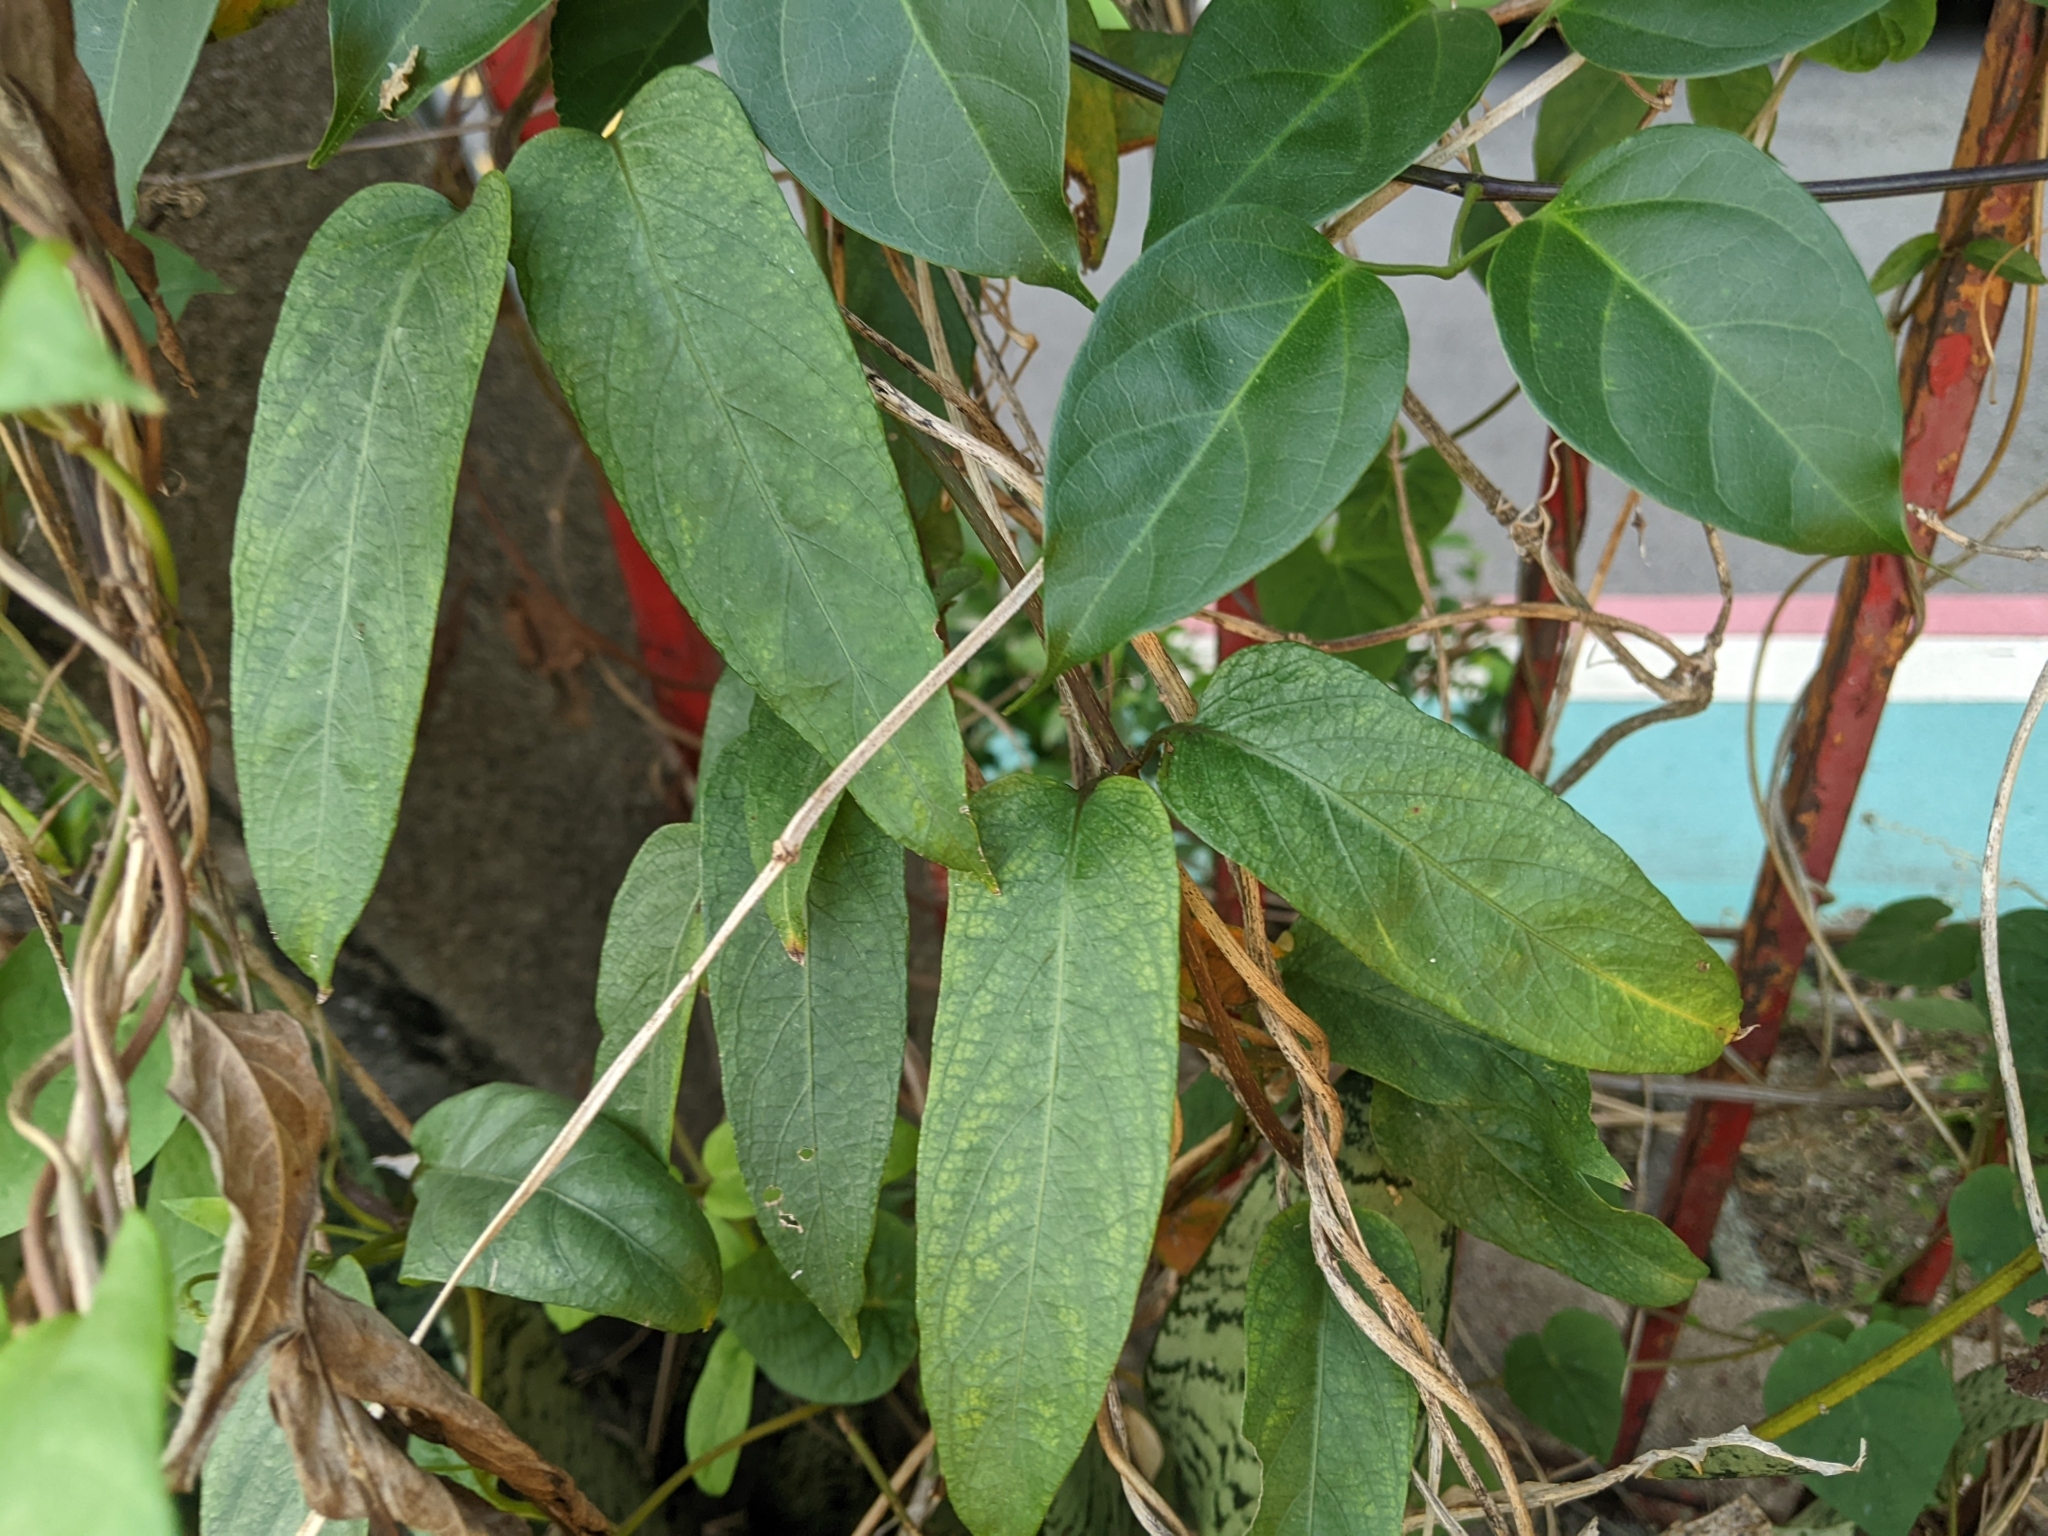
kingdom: Plantae
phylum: Tracheophyta
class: Magnoliopsida
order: Gentianales
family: Rubiaceae
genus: Paederia
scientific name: Paederia foetida
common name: Stinkvine
